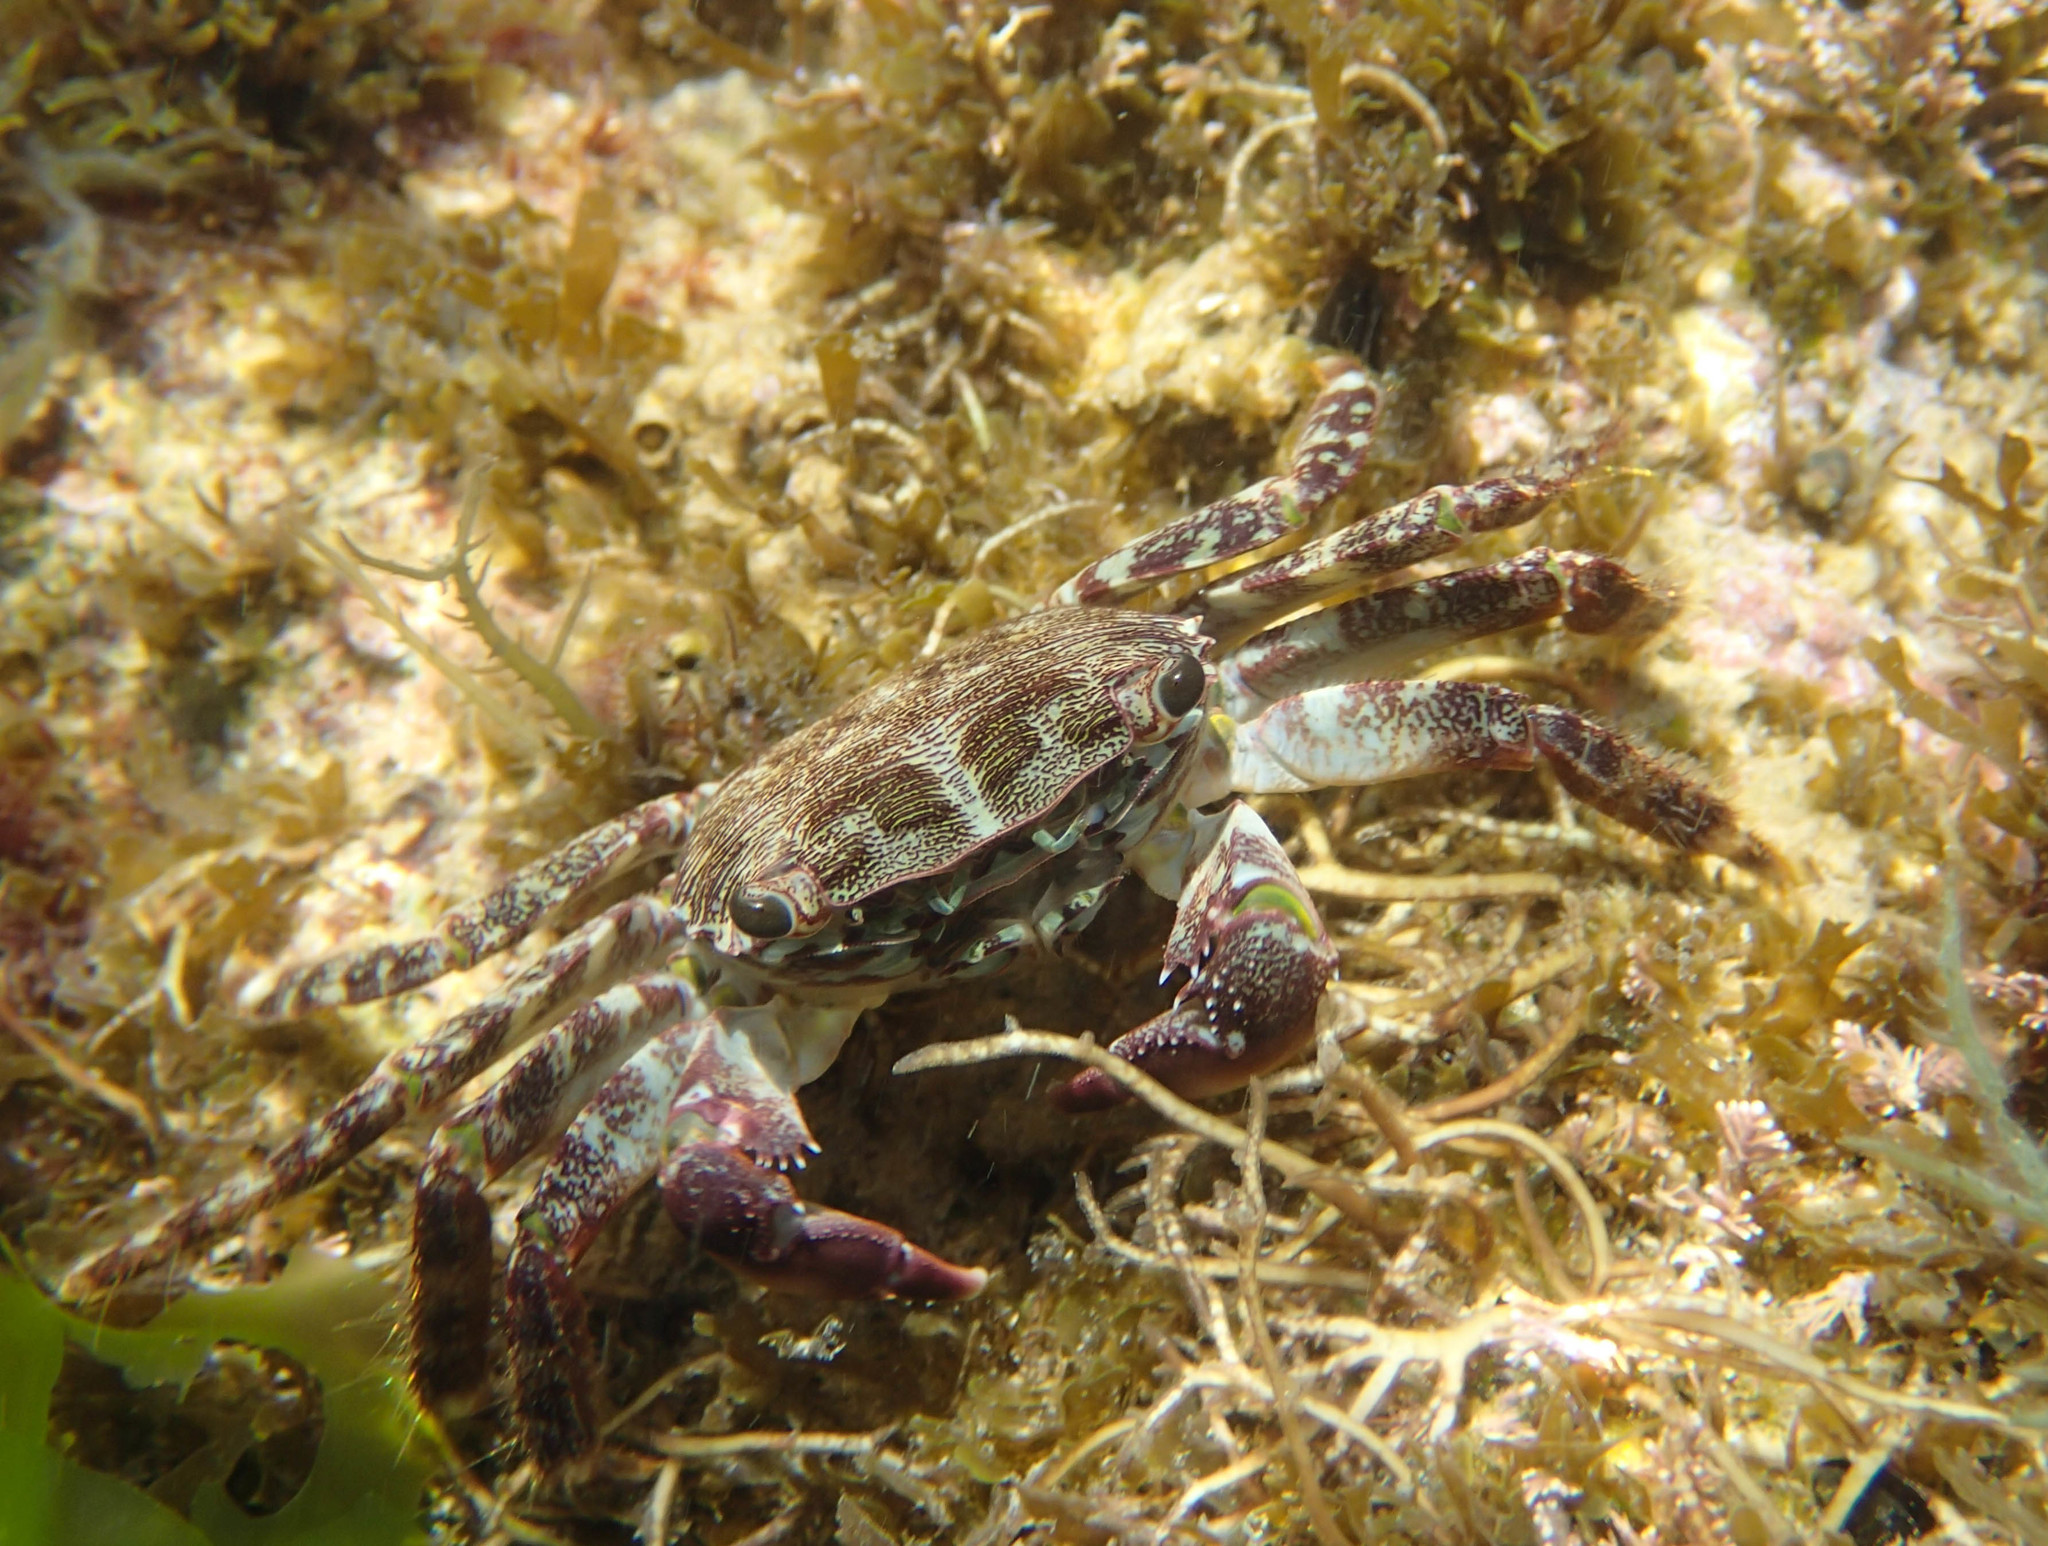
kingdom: Animalia
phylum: Arthropoda
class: Malacostraca
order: Decapoda
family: Grapsidae
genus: Pachygrapsus
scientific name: Pachygrapsus marmoratus
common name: Marbled rock crab
